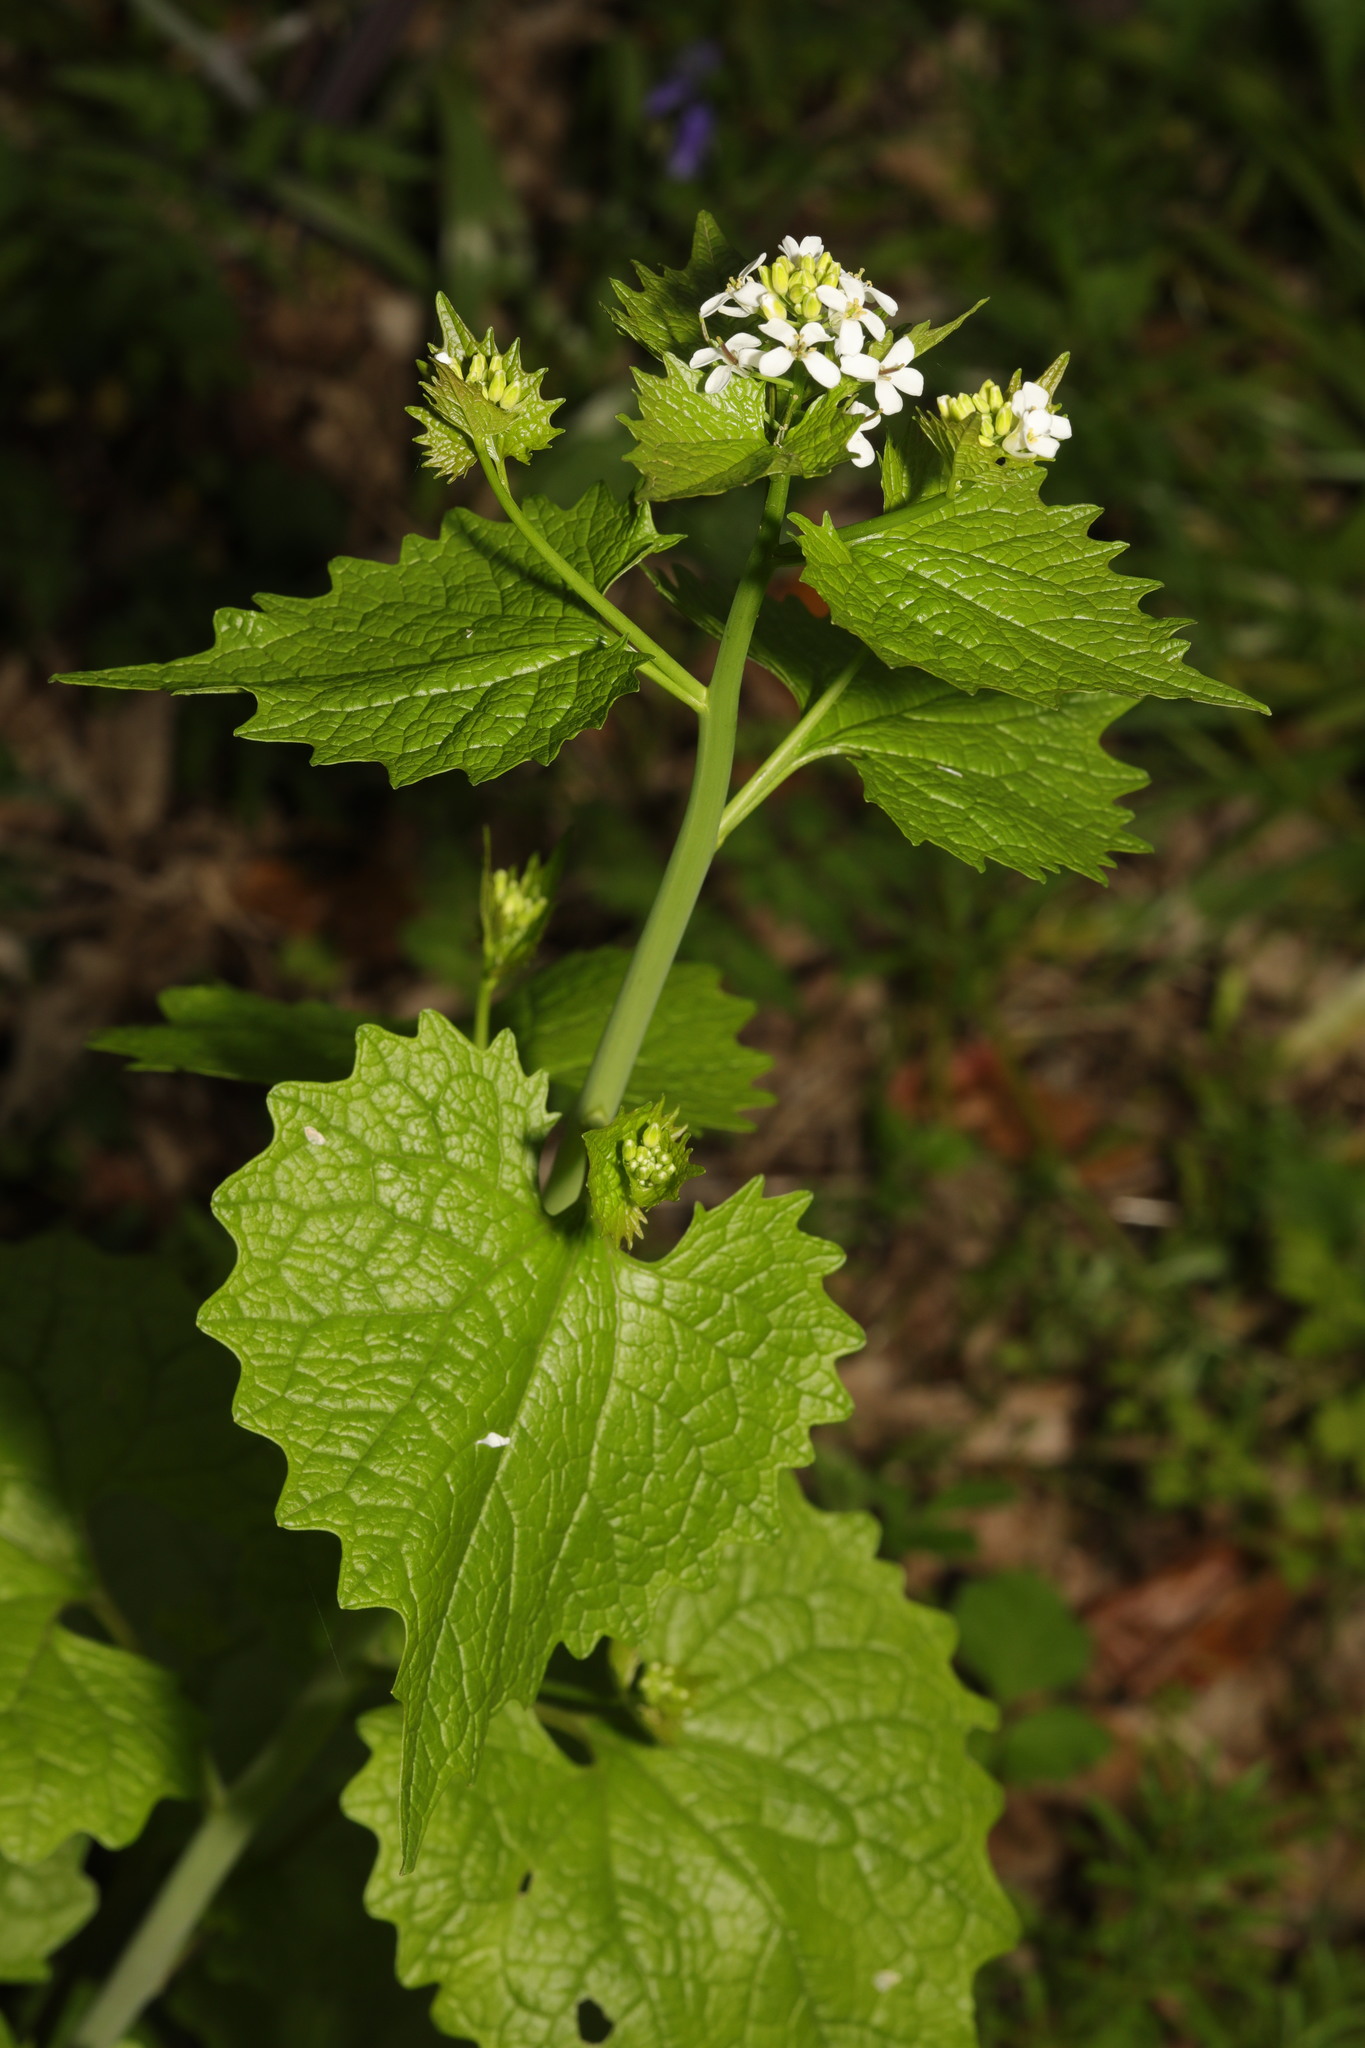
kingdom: Plantae
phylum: Tracheophyta
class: Magnoliopsida
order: Brassicales
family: Brassicaceae
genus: Alliaria
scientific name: Alliaria petiolata
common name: Garlic mustard
